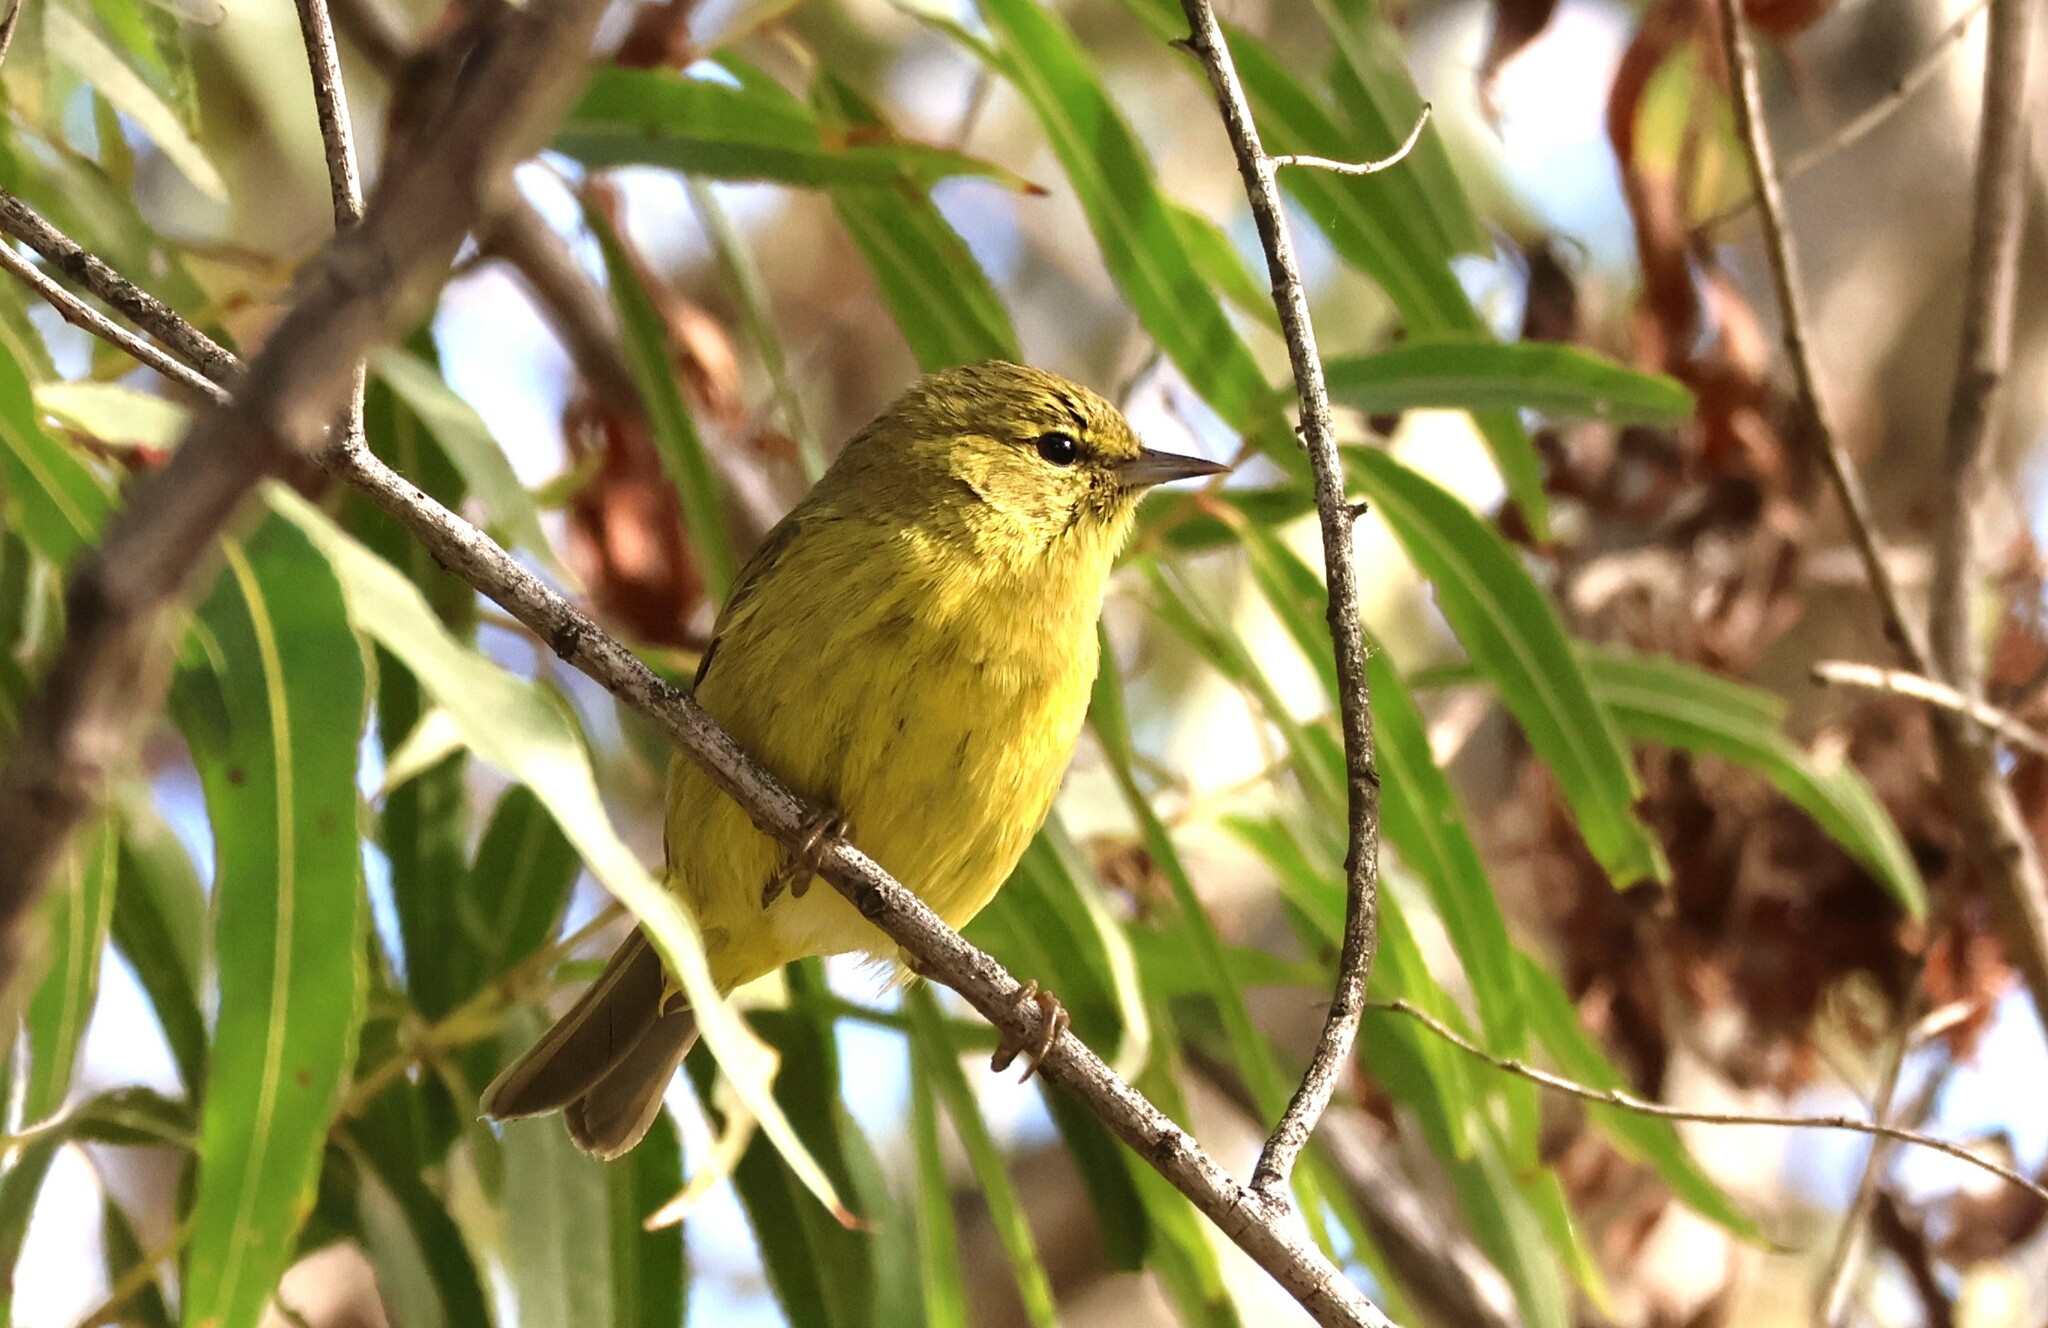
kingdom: Animalia
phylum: Chordata
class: Aves
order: Passeriformes
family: Parulidae
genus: Leiothlypis
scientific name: Leiothlypis celata
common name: Orange-crowned warbler
